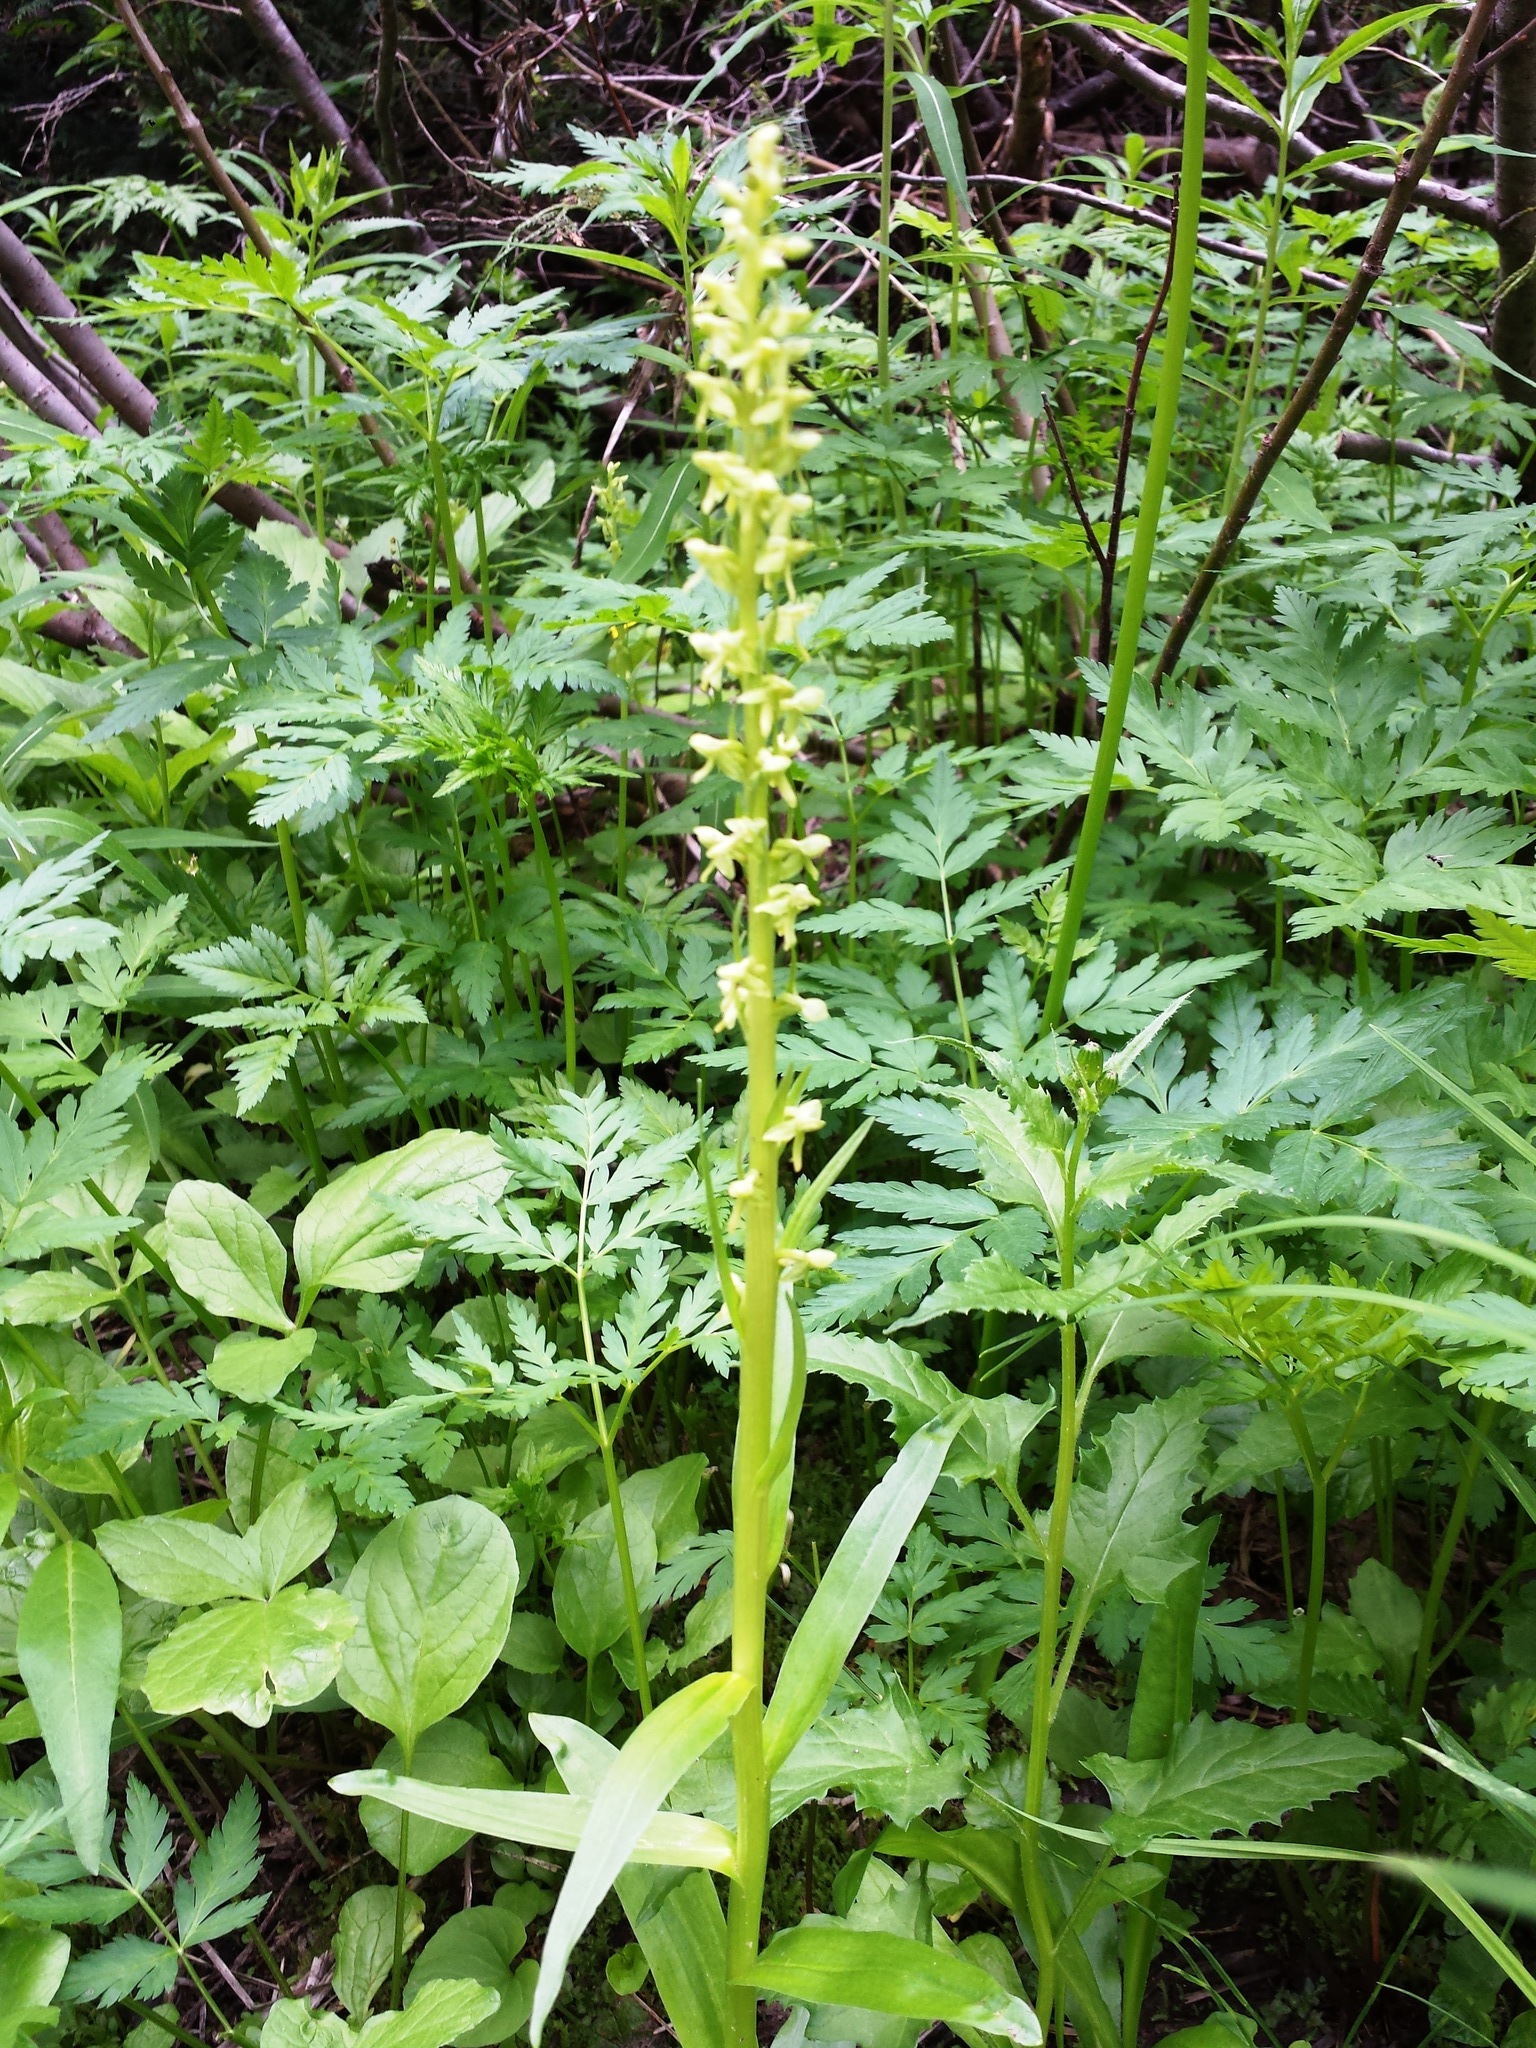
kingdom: Plantae
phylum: Tracheophyta
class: Liliopsida
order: Asparagales
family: Orchidaceae
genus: Platanthera
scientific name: Platanthera stricta
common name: Slender bog orchid
